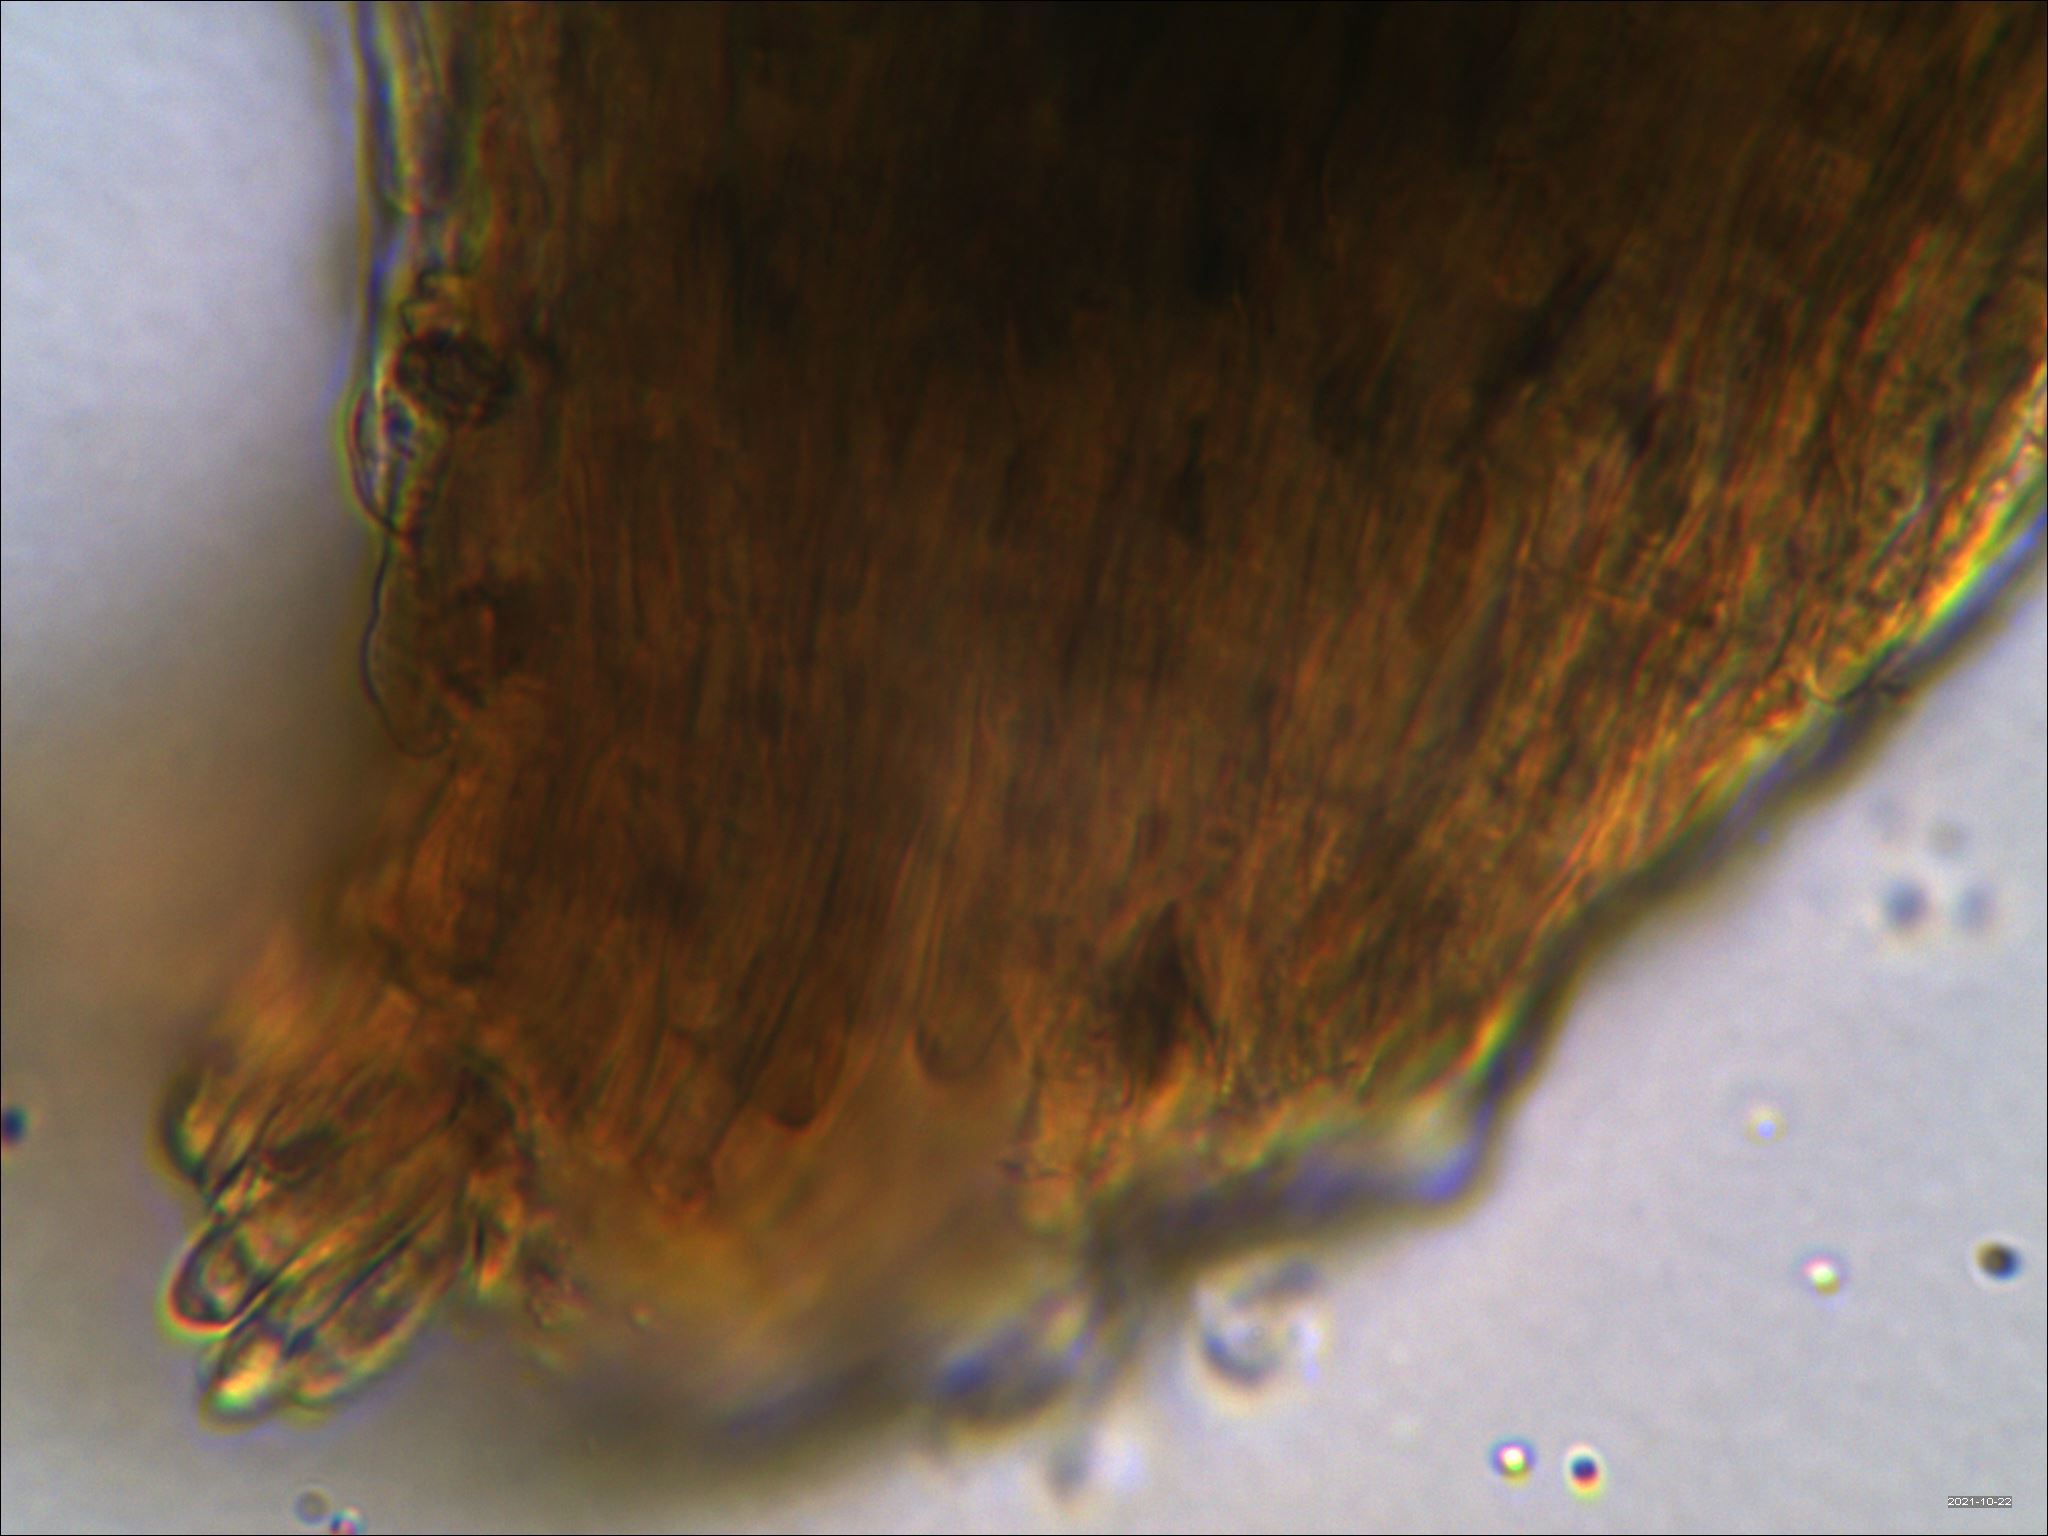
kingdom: Fungi
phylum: Basidiomycota
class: Agaricomycetes
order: Thelephorales
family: Bankeraceae
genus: Hydnellum
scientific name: Hydnellum ioeides
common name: Violet tooth
